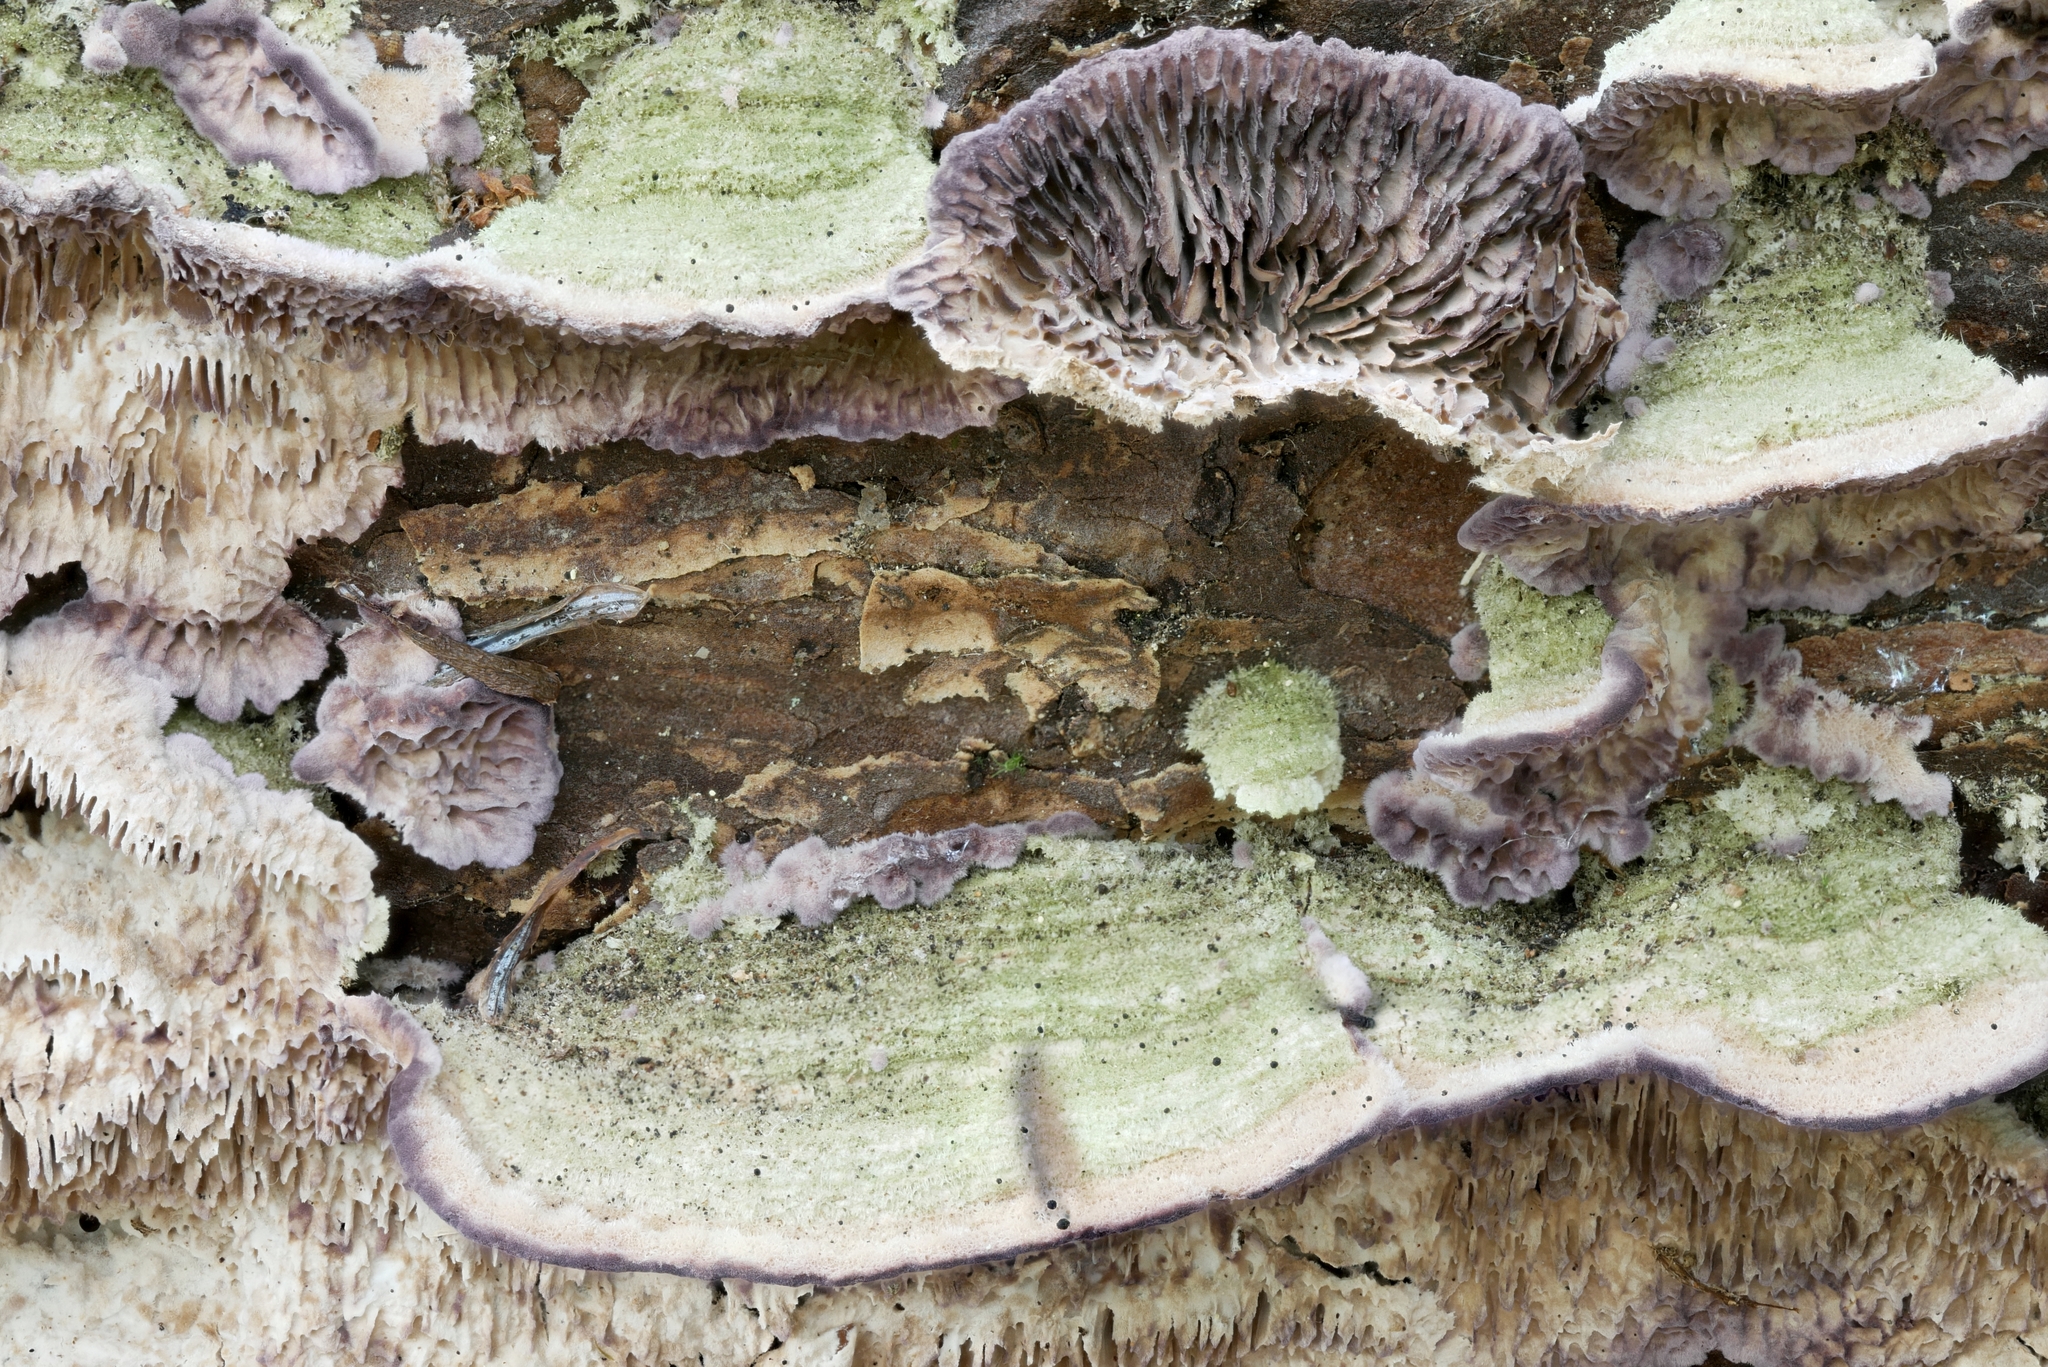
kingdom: Fungi
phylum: Basidiomycota
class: Agaricomycetes
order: Hymenochaetales
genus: Trichaptum
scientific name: Trichaptum laricinum
